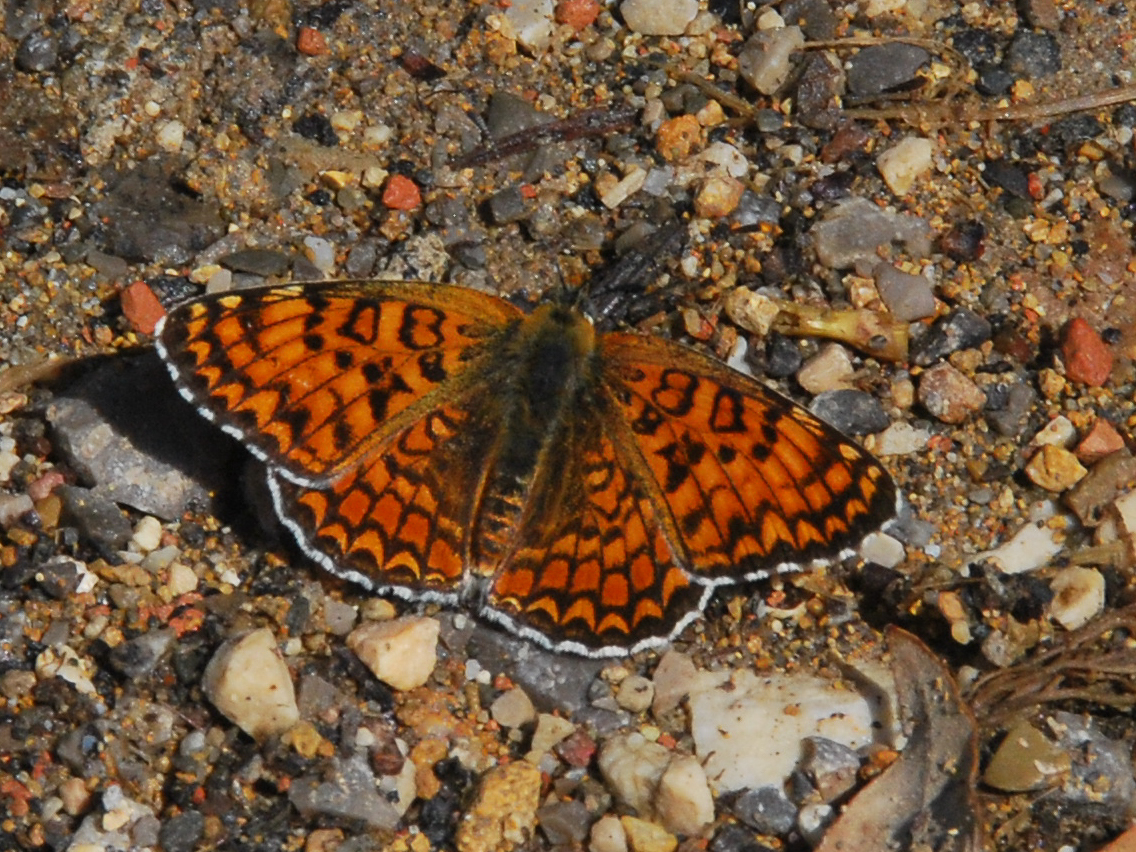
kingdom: Animalia
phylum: Arthropoda
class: Insecta
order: Lepidoptera
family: Nymphalidae
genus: Melitaea
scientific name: Melitaea phoebe
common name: Knapweed fritillary
